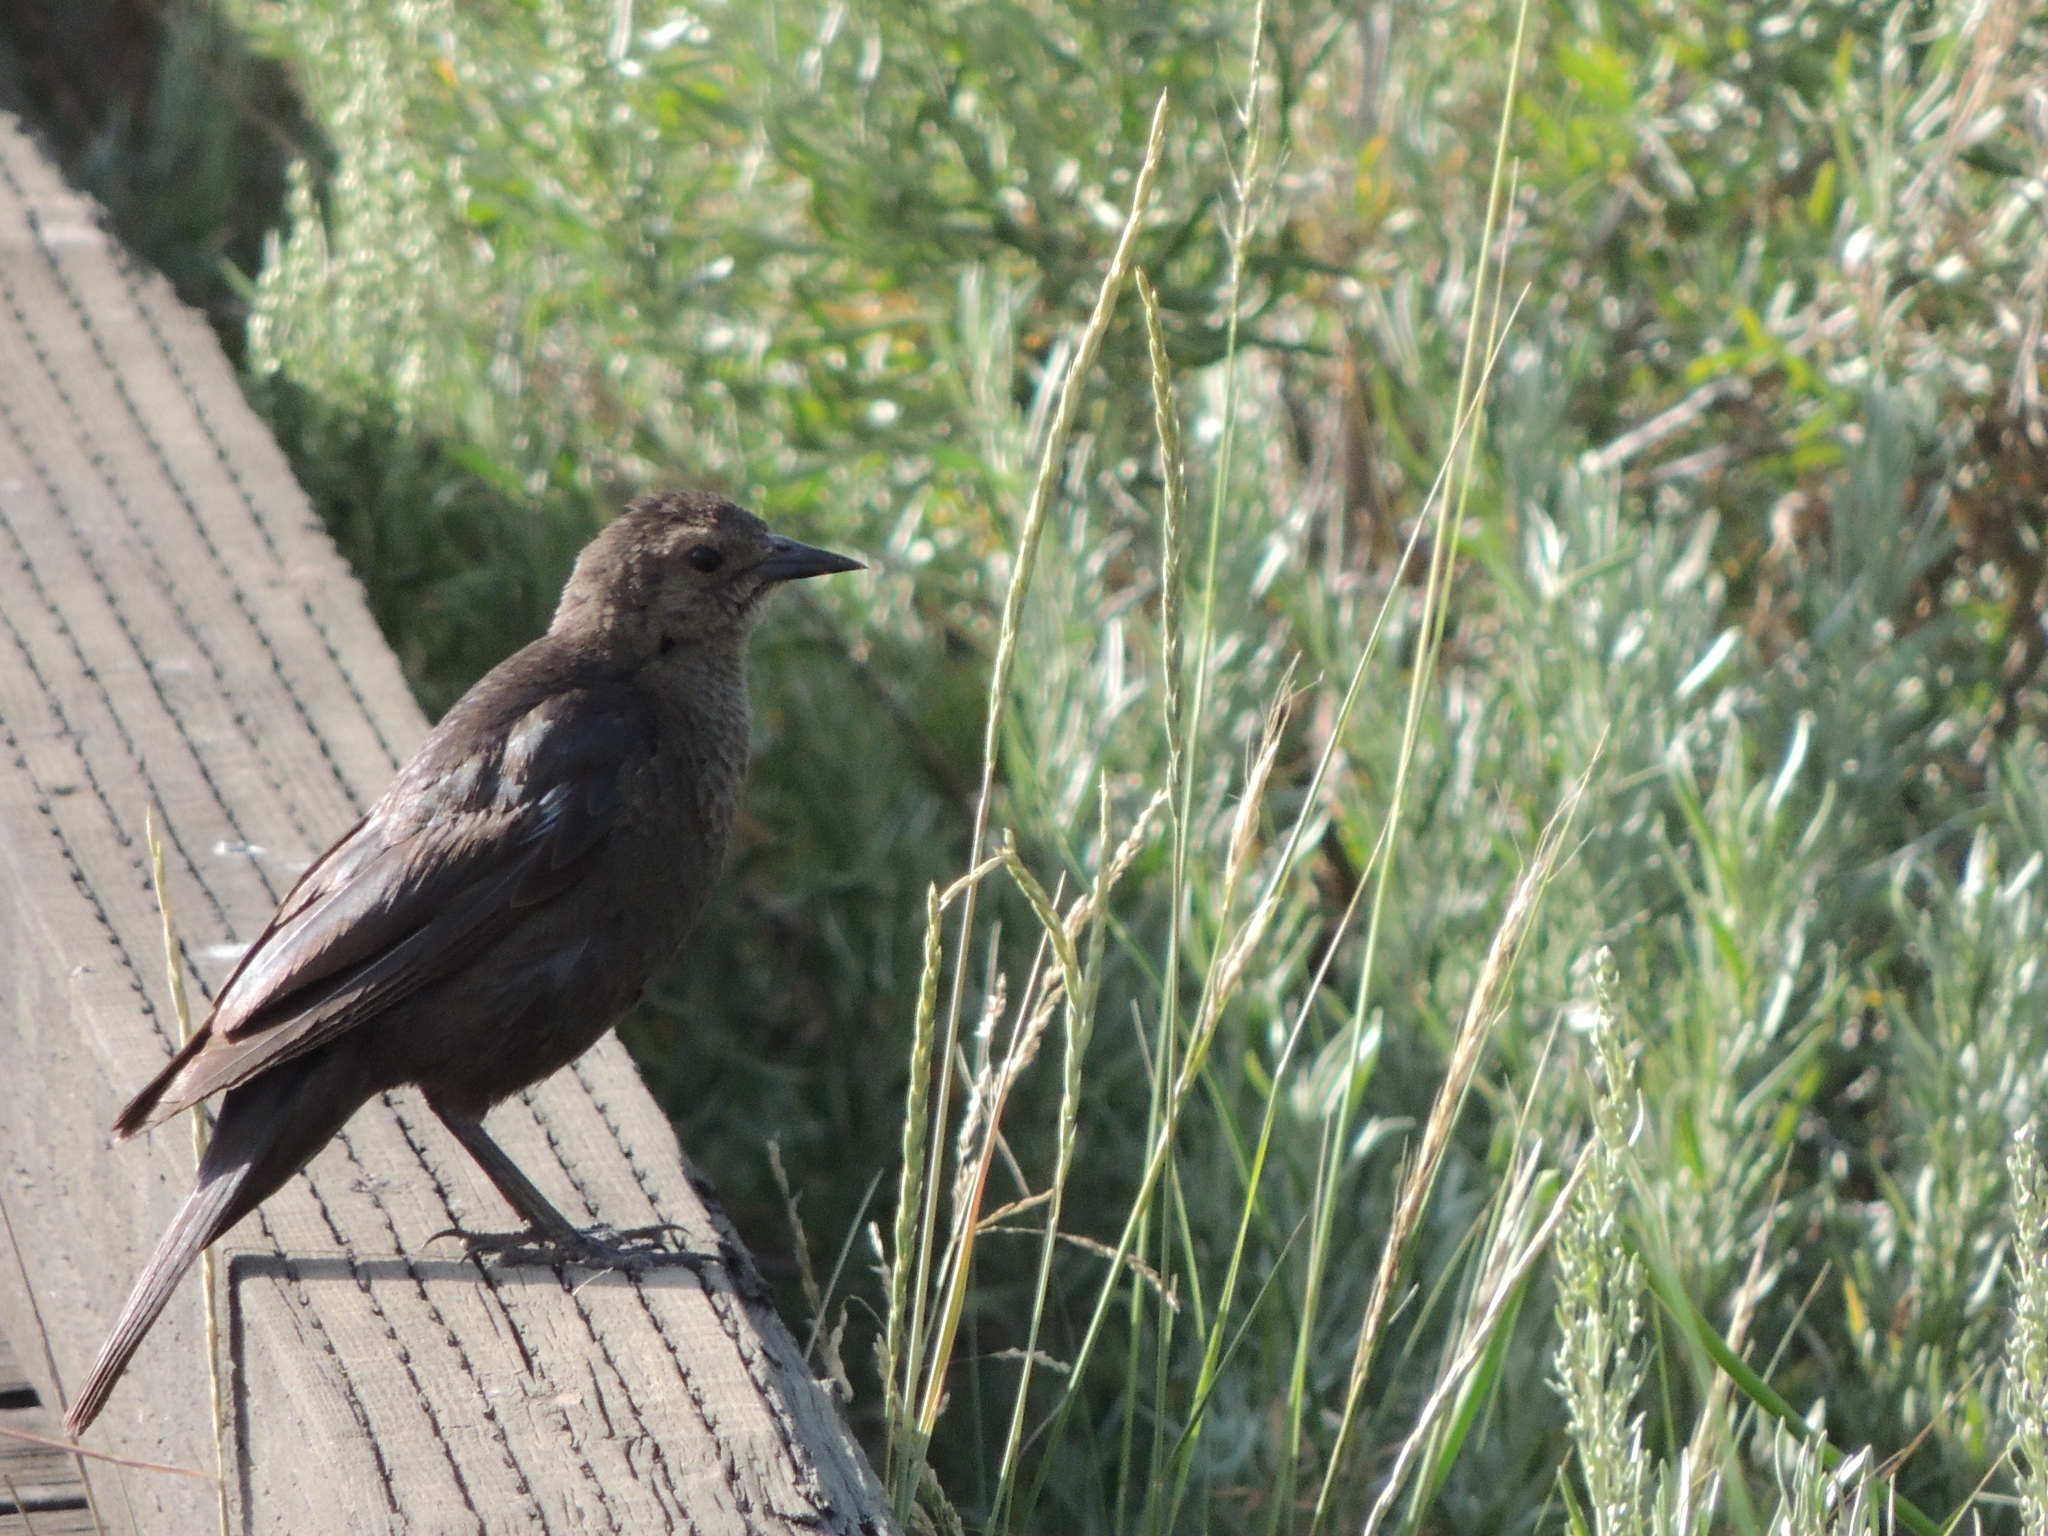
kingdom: Animalia
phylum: Chordata
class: Aves
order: Passeriformes
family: Icteridae
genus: Euphagus
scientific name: Euphagus cyanocephalus
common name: Brewer's blackbird
